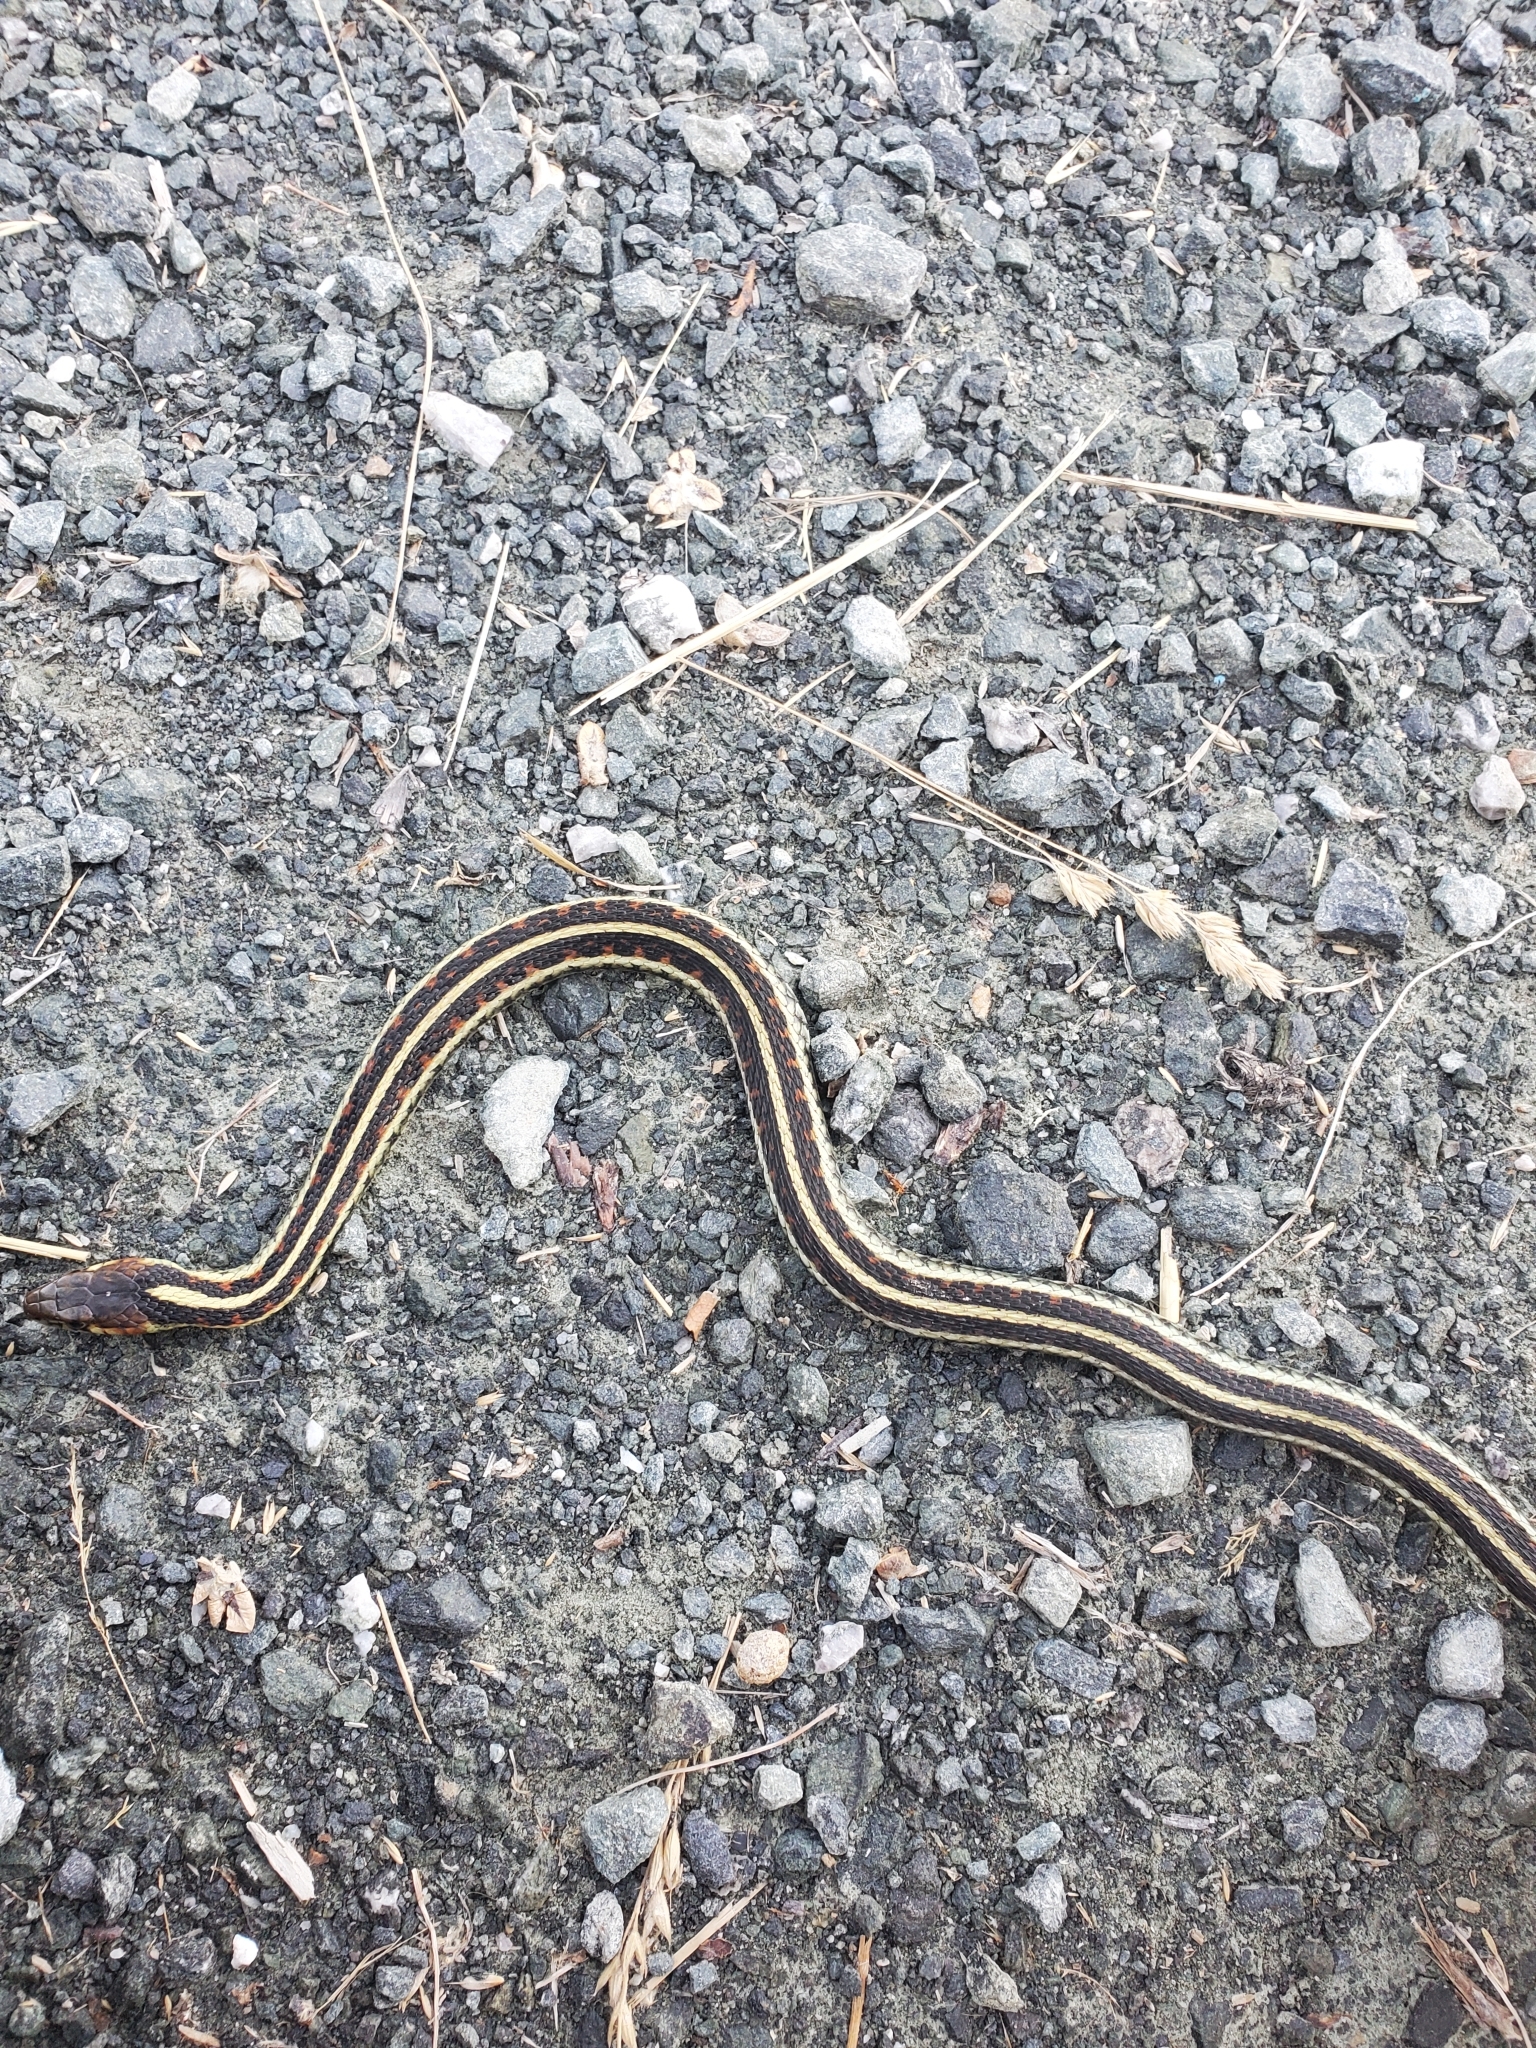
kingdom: Animalia
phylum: Chordata
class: Squamata
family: Colubridae
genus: Thamnophis
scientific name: Thamnophis sirtalis
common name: Common garter snake
